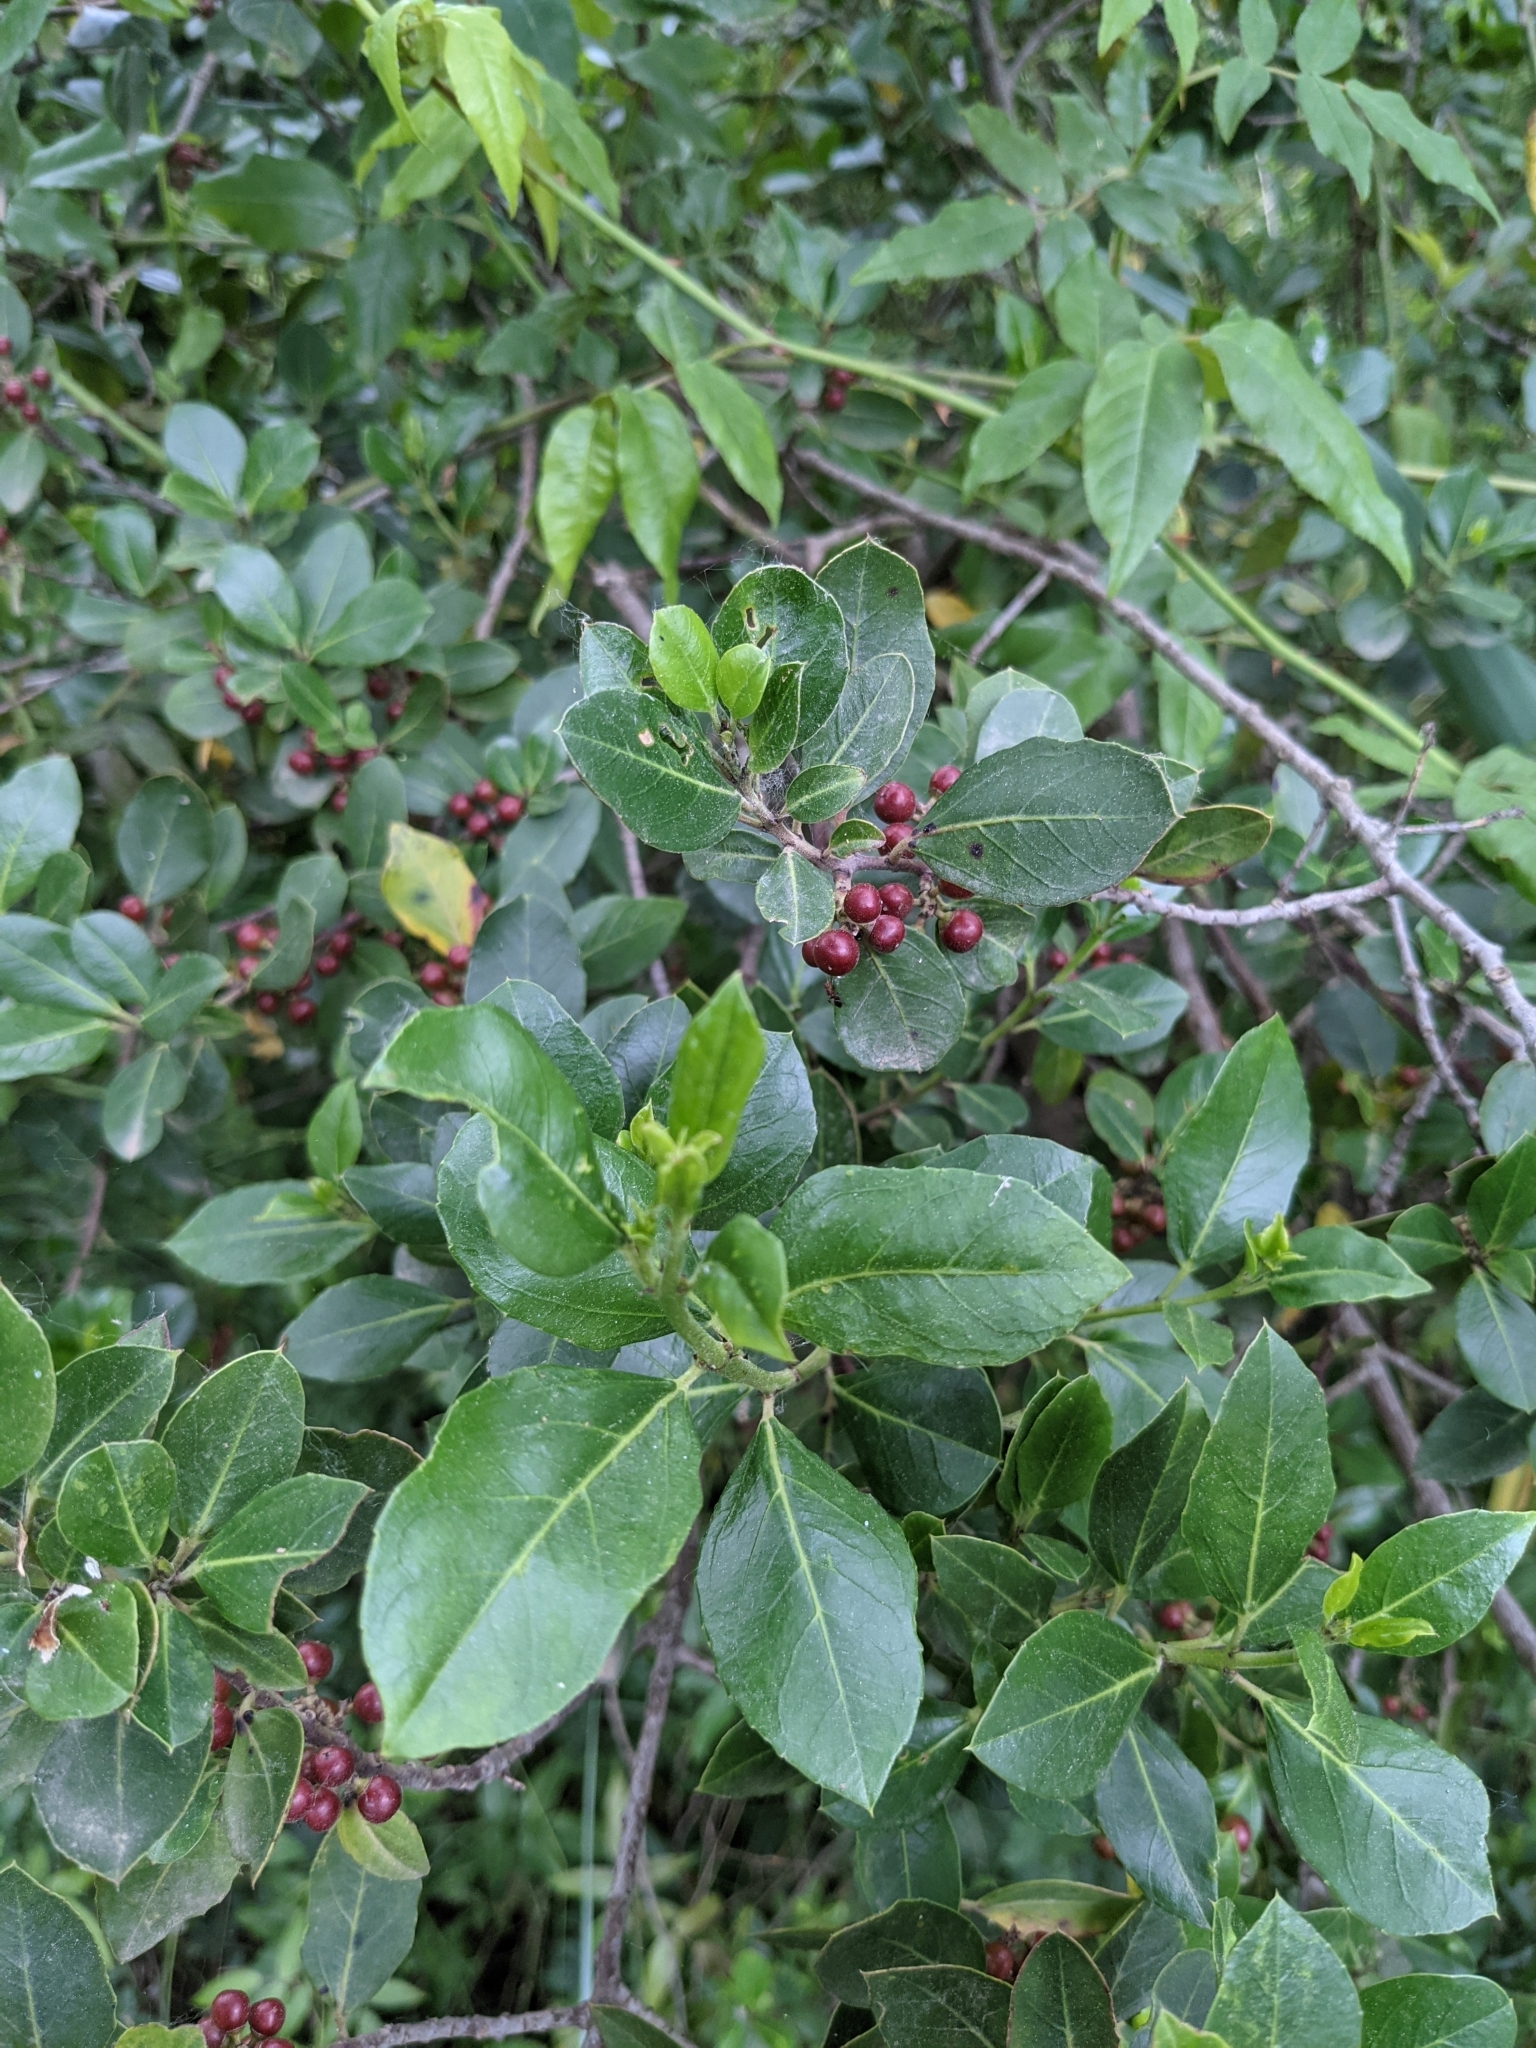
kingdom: Plantae
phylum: Tracheophyta
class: Magnoliopsida
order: Rosales
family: Rhamnaceae
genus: Rhamnus
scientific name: Rhamnus alaternus
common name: Mediterranean buckthorn
